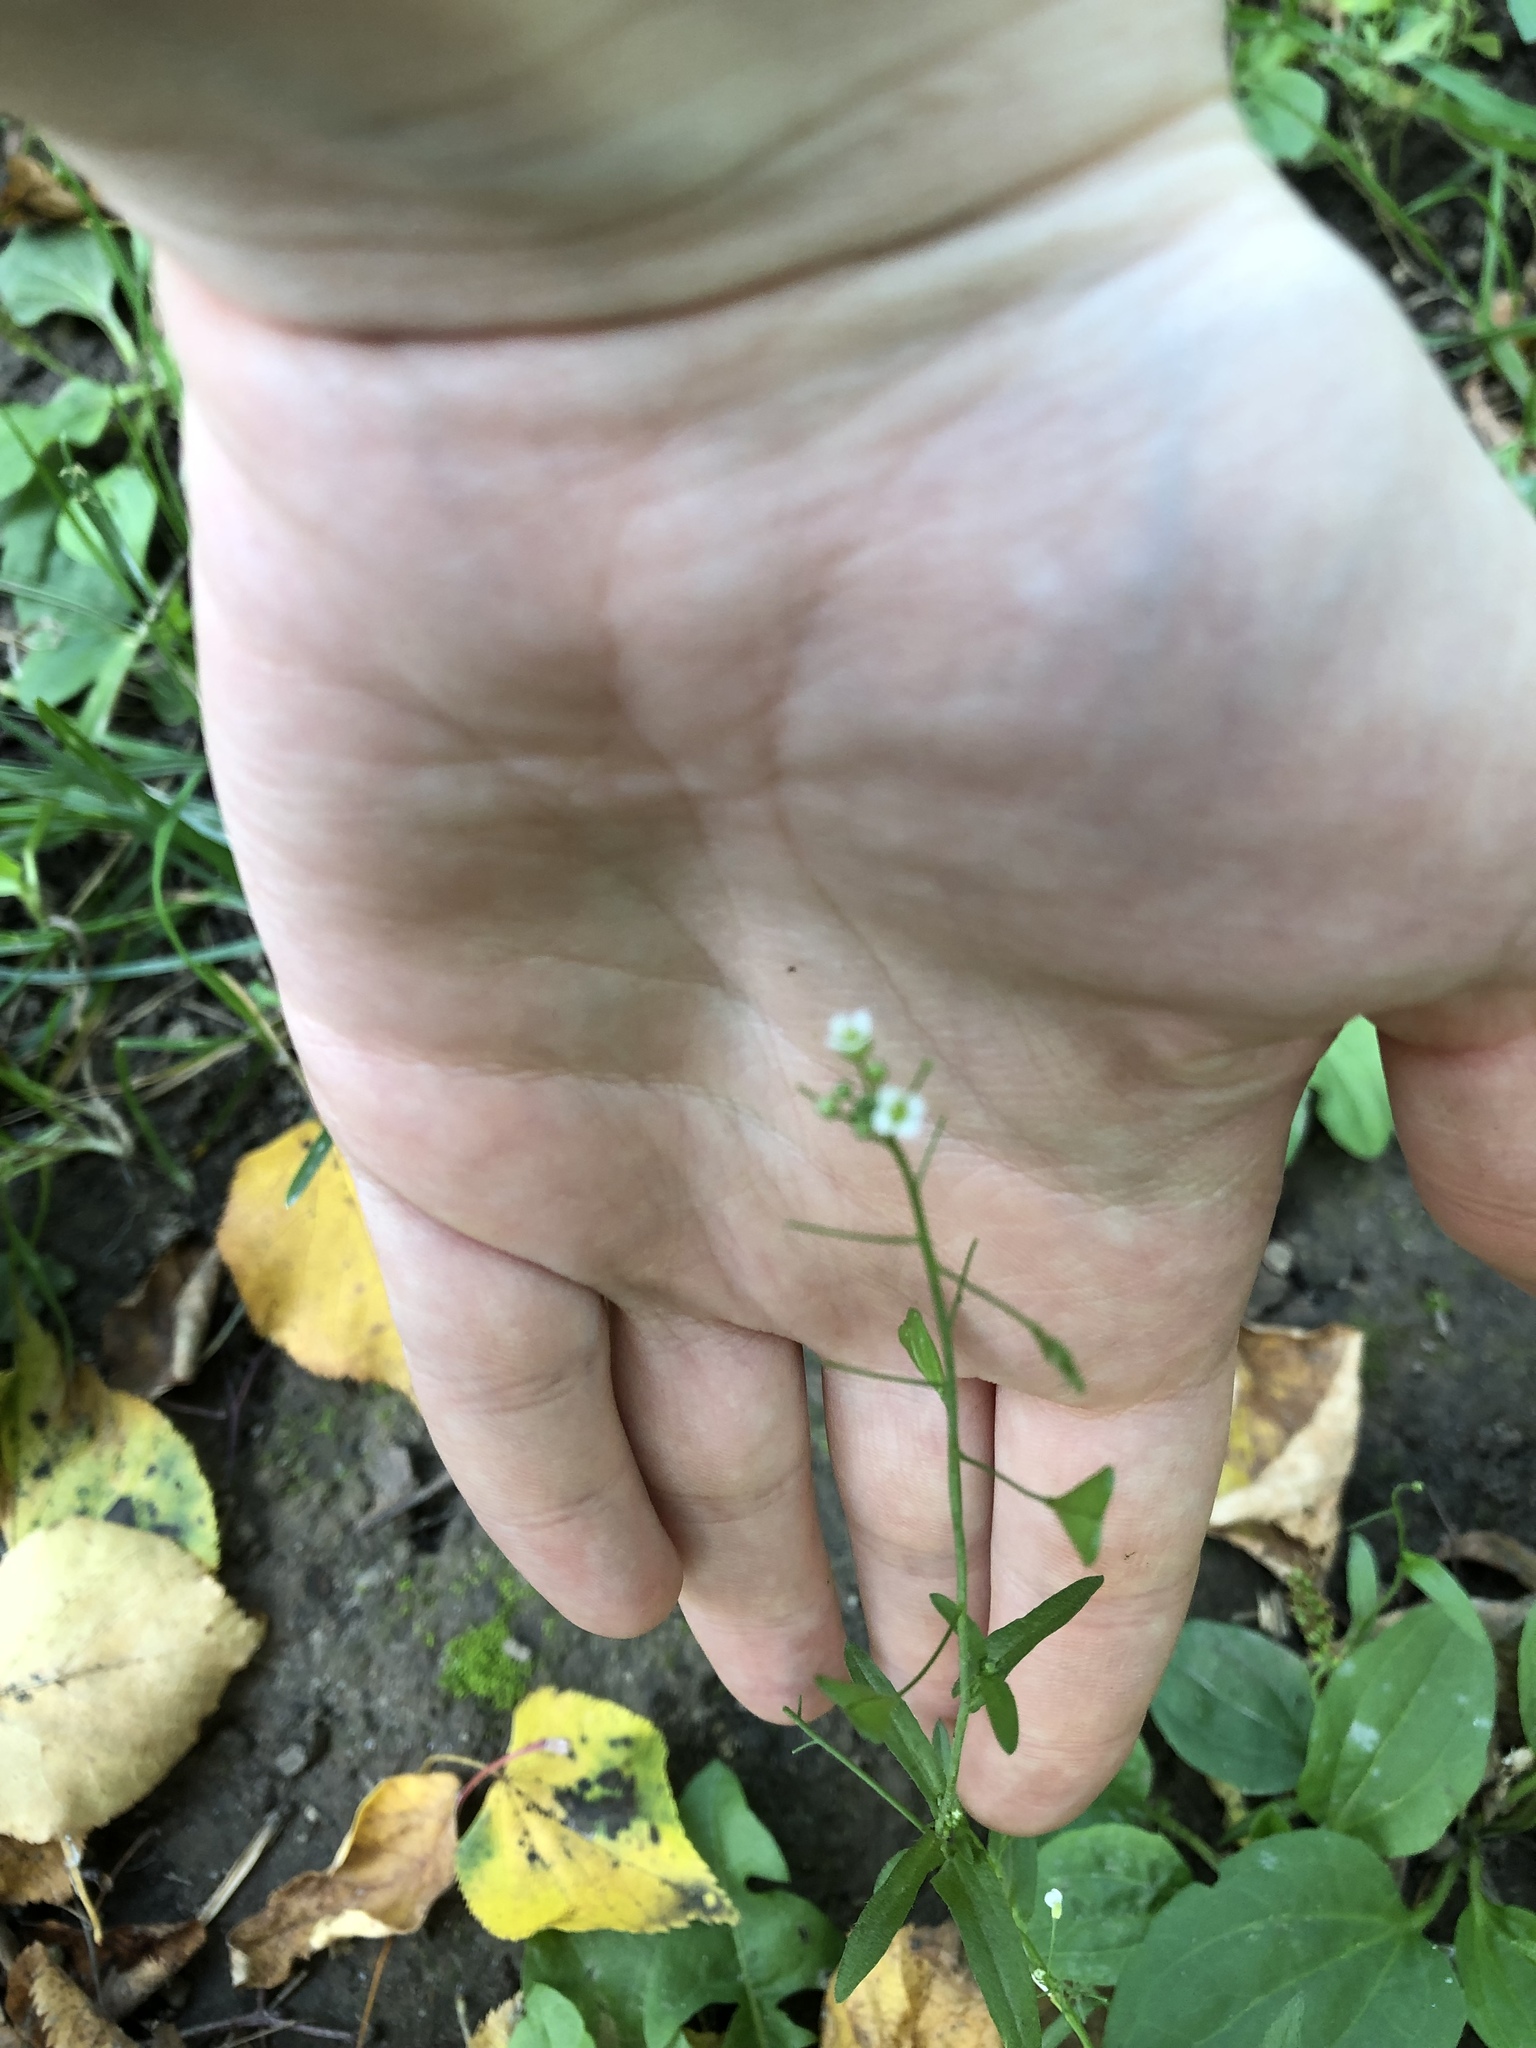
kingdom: Plantae
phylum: Tracheophyta
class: Magnoliopsida
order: Brassicales
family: Brassicaceae
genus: Capsella
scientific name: Capsella bursa-pastoris
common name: Shepherd's purse
